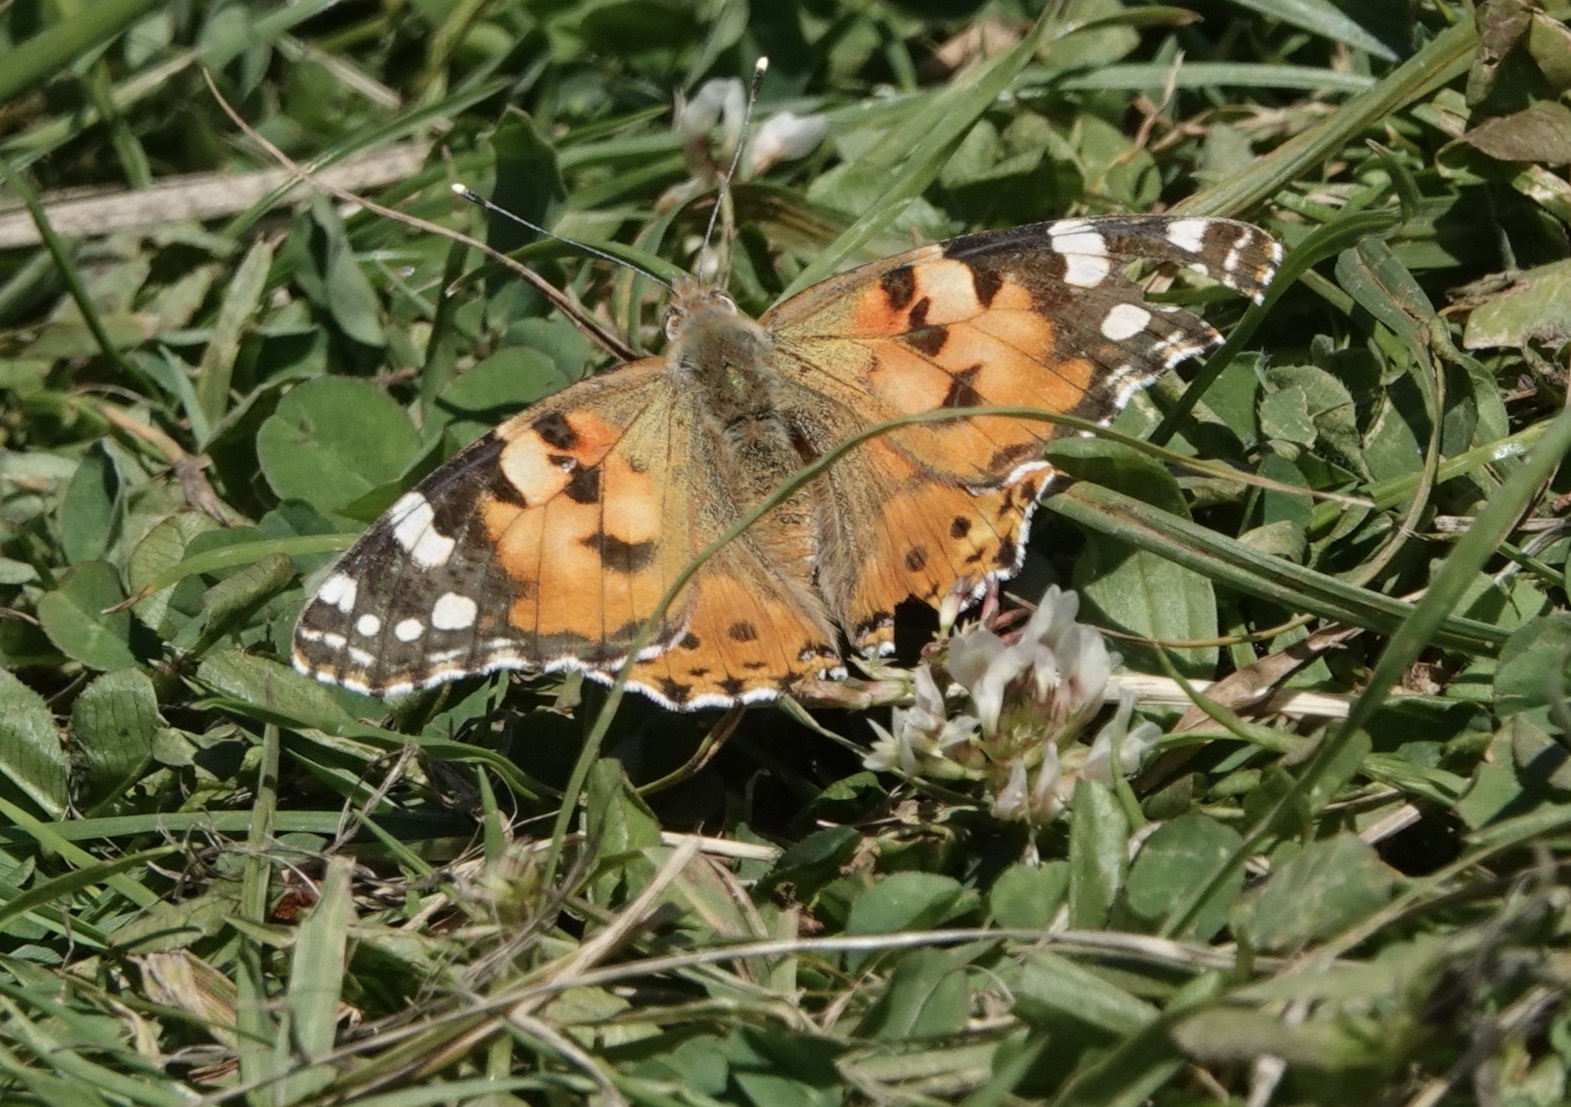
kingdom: Animalia
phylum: Arthropoda
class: Insecta
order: Lepidoptera
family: Nymphalidae
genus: Vanessa
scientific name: Vanessa cardui
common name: Painted lady
